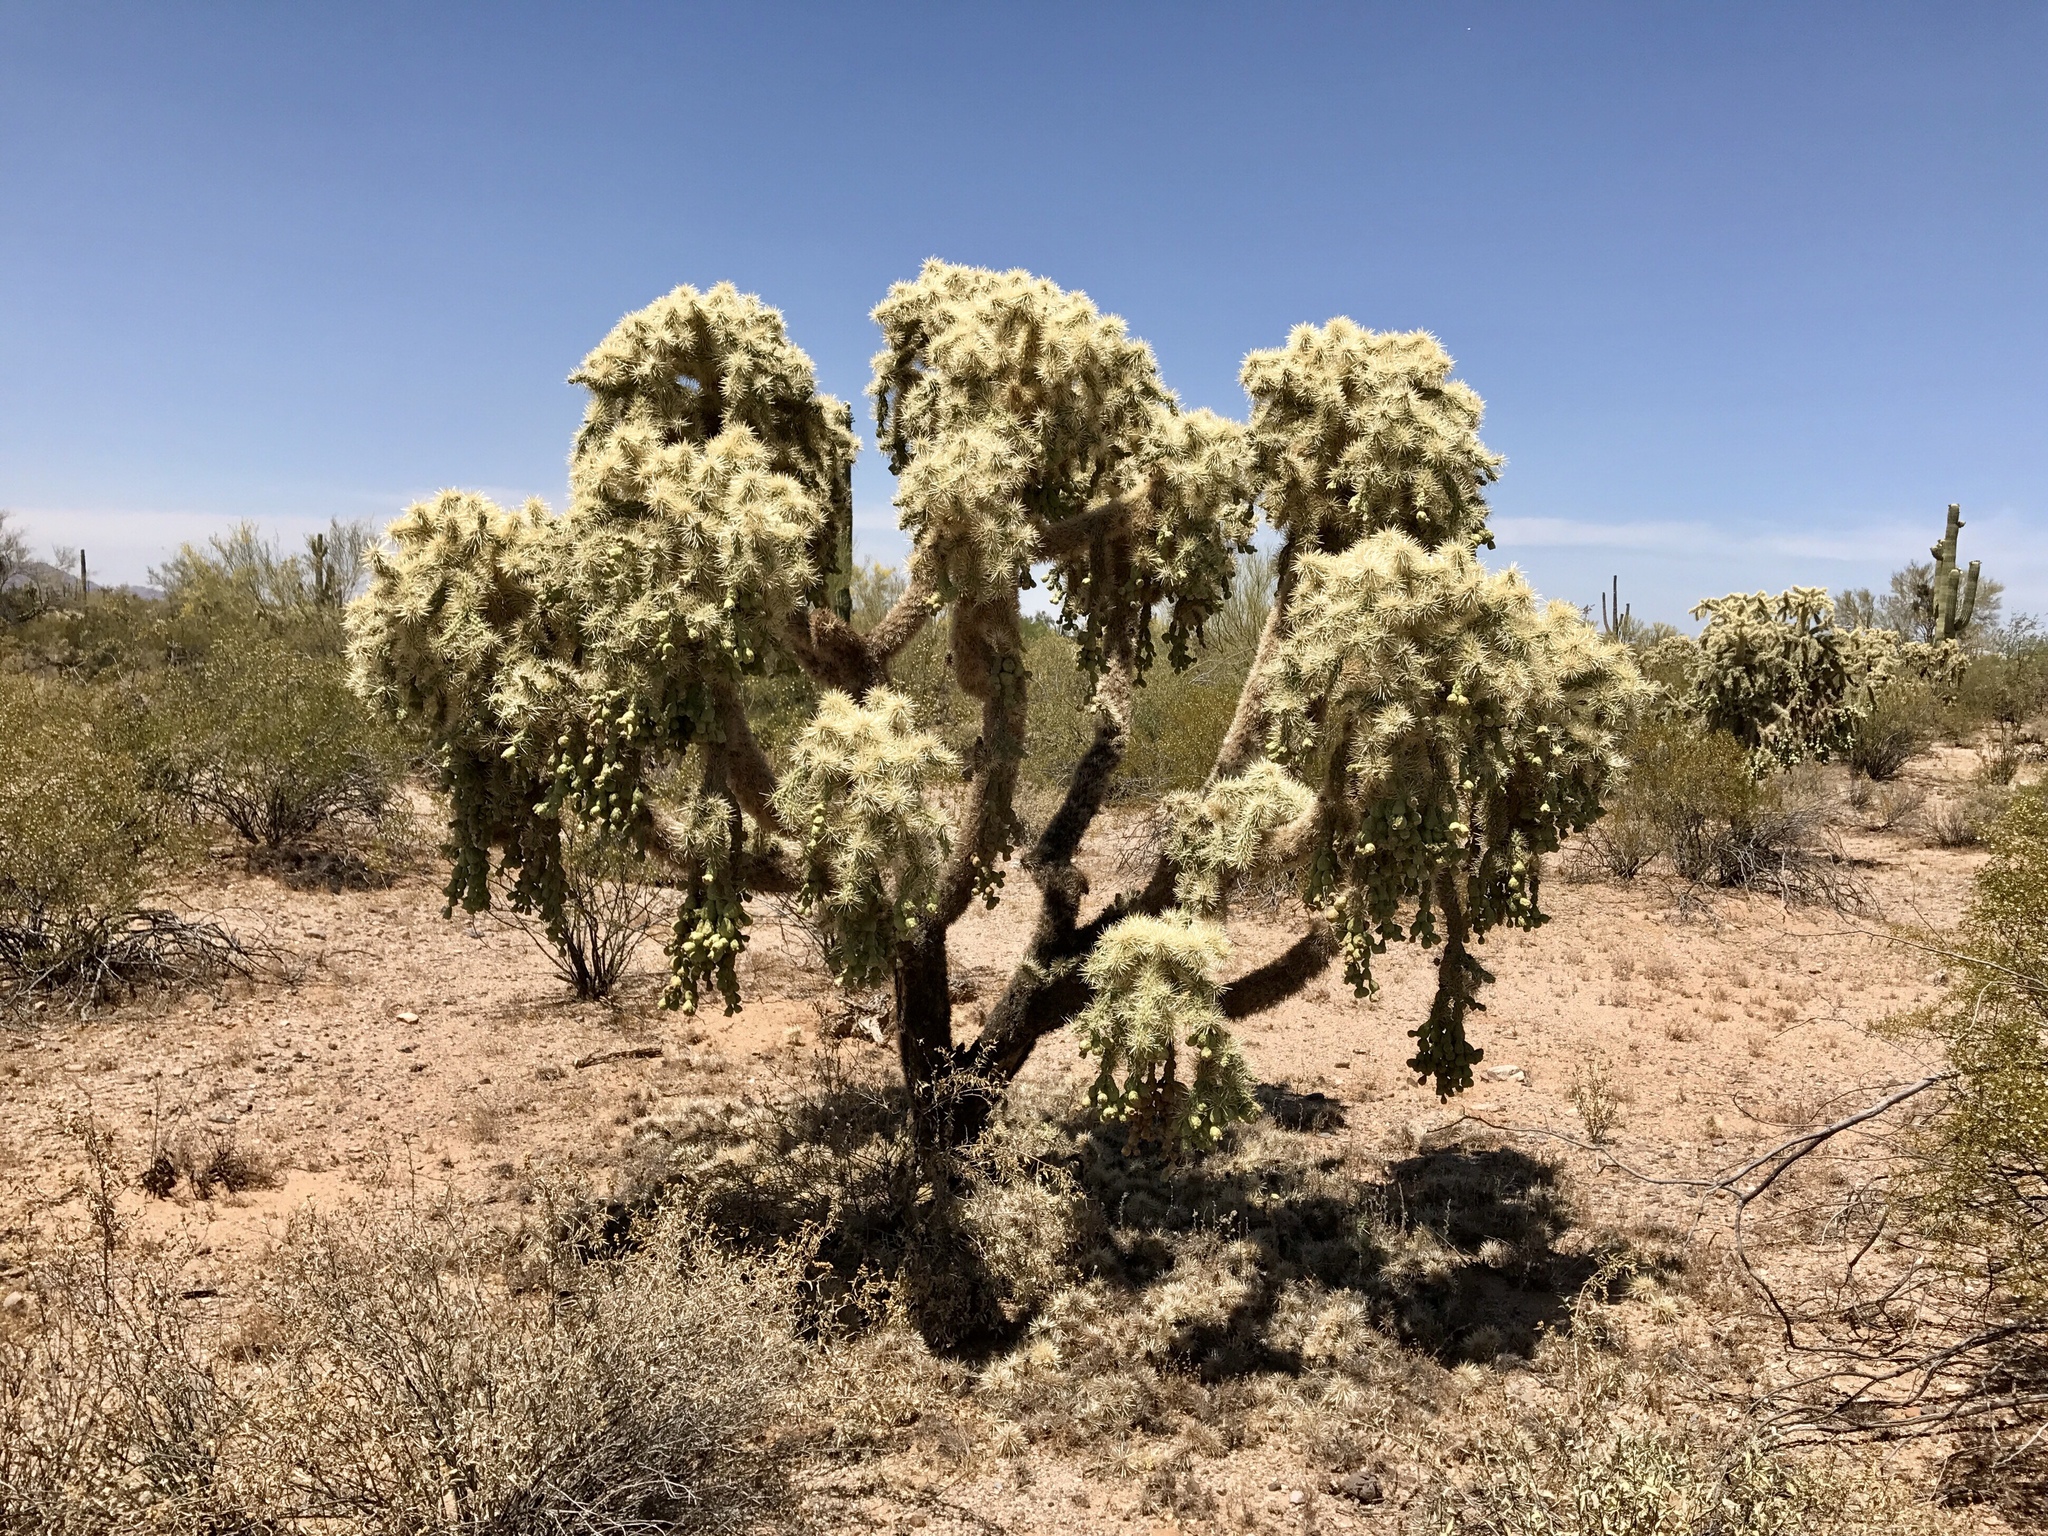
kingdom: Plantae
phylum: Tracheophyta
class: Magnoliopsida
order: Caryophyllales
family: Cactaceae
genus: Cylindropuntia
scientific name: Cylindropuntia fulgida
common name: Jumping cholla
